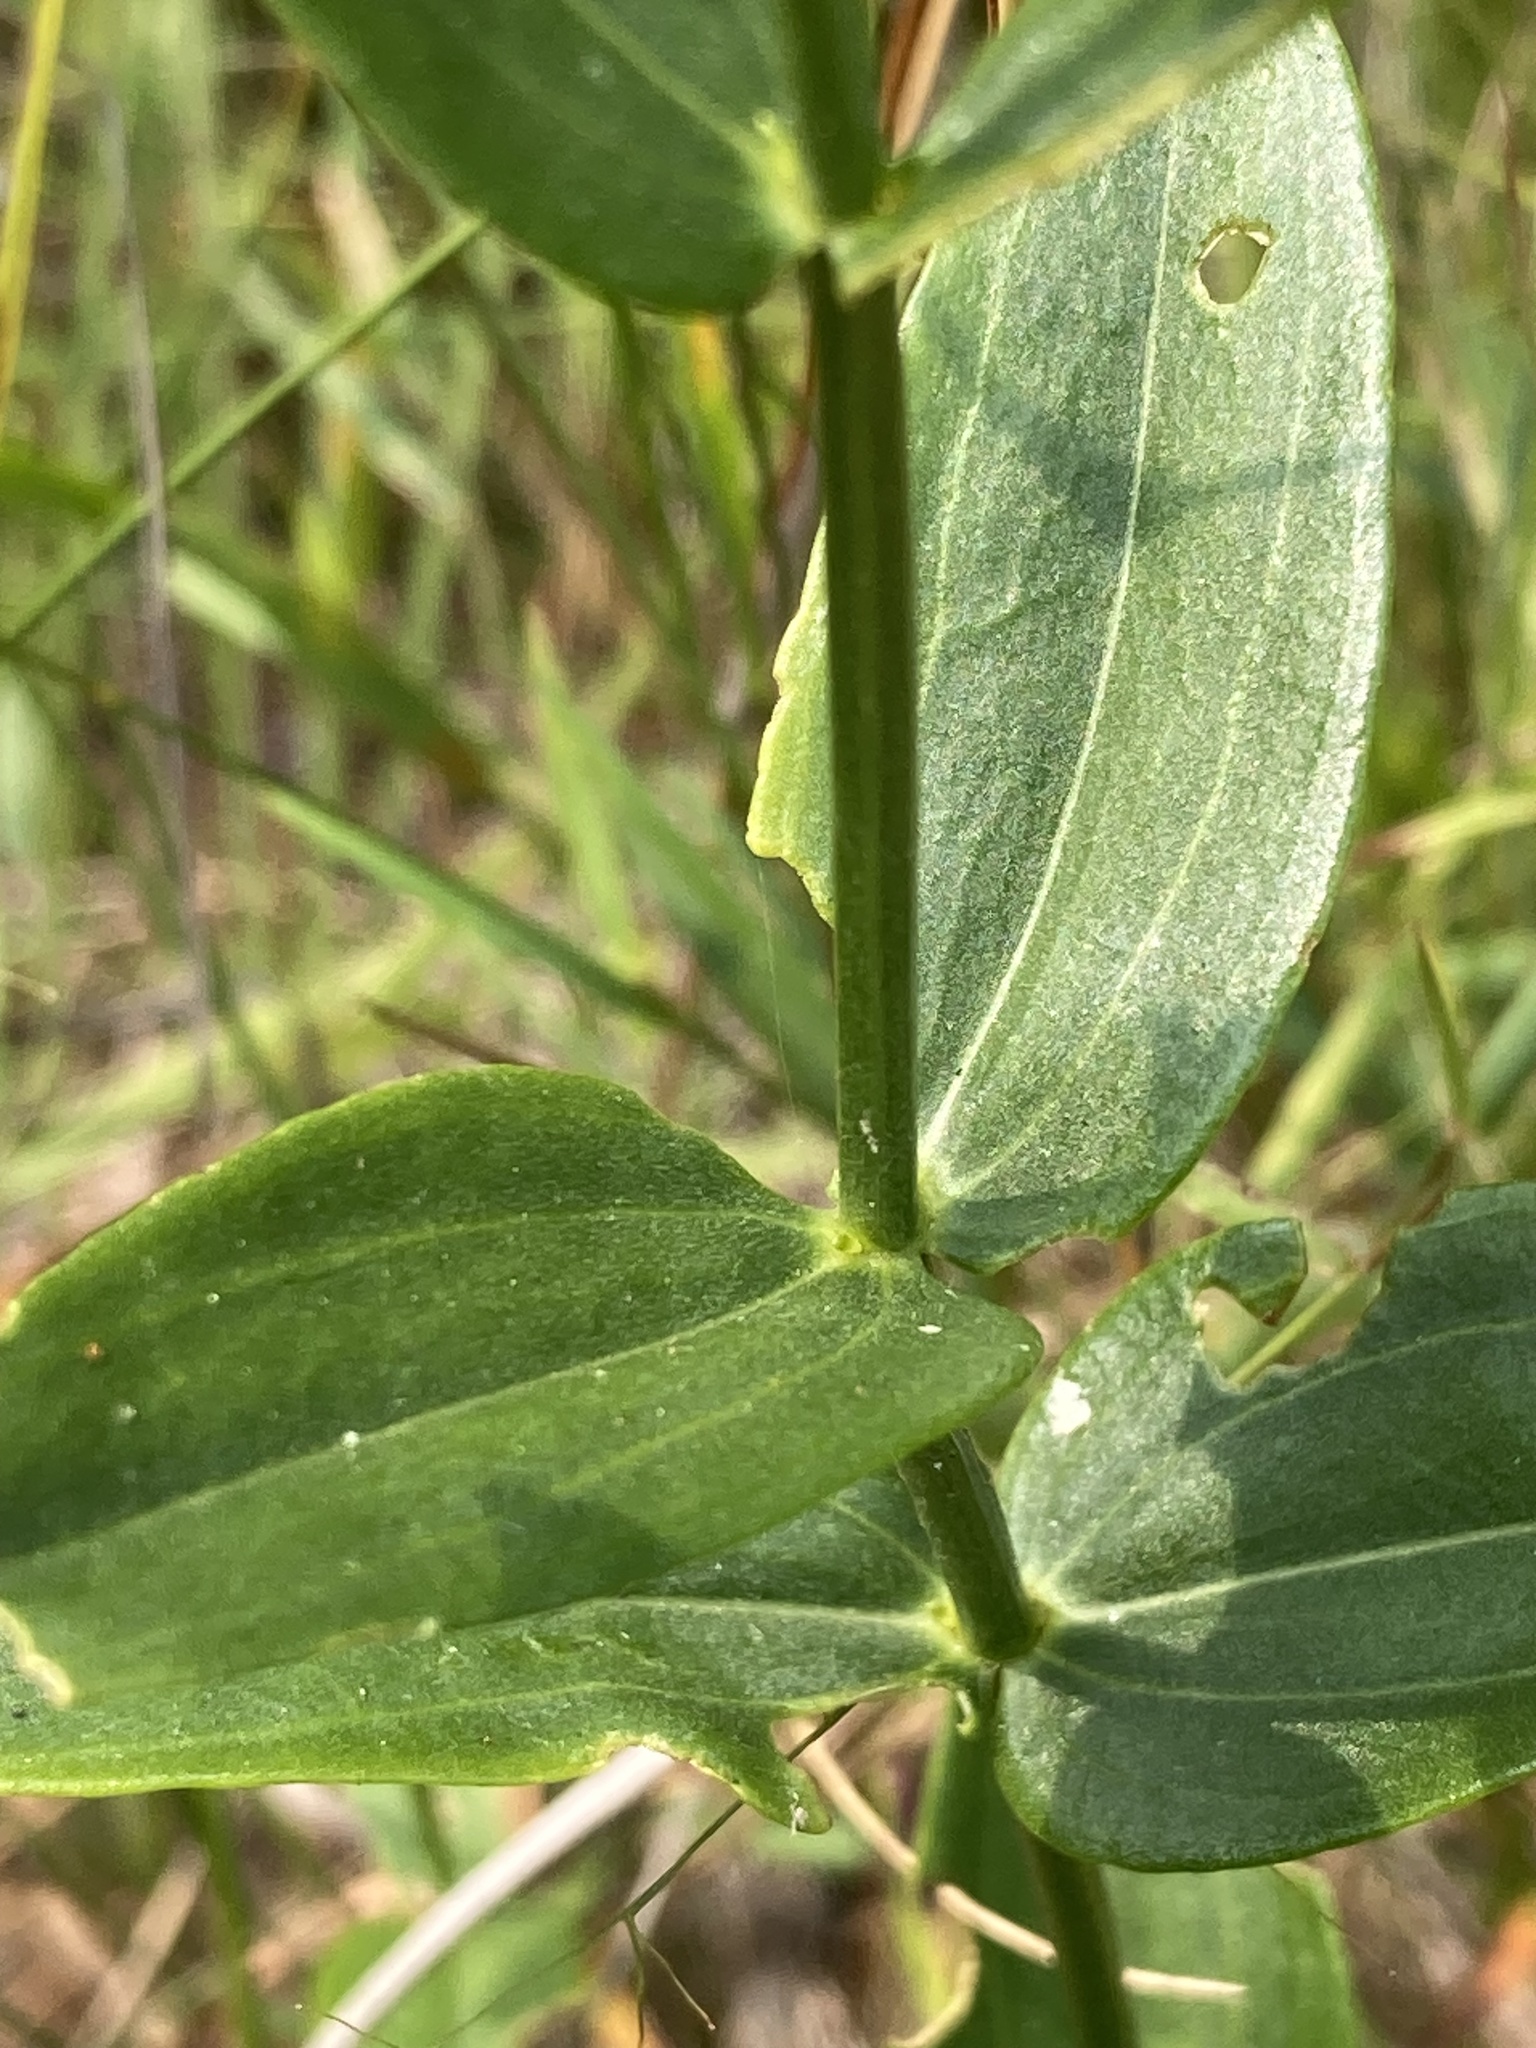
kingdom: Plantae
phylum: Tracheophyta
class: Magnoliopsida
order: Gentianales
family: Gentianaceae
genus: Sabatia
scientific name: Sabatia difformis
